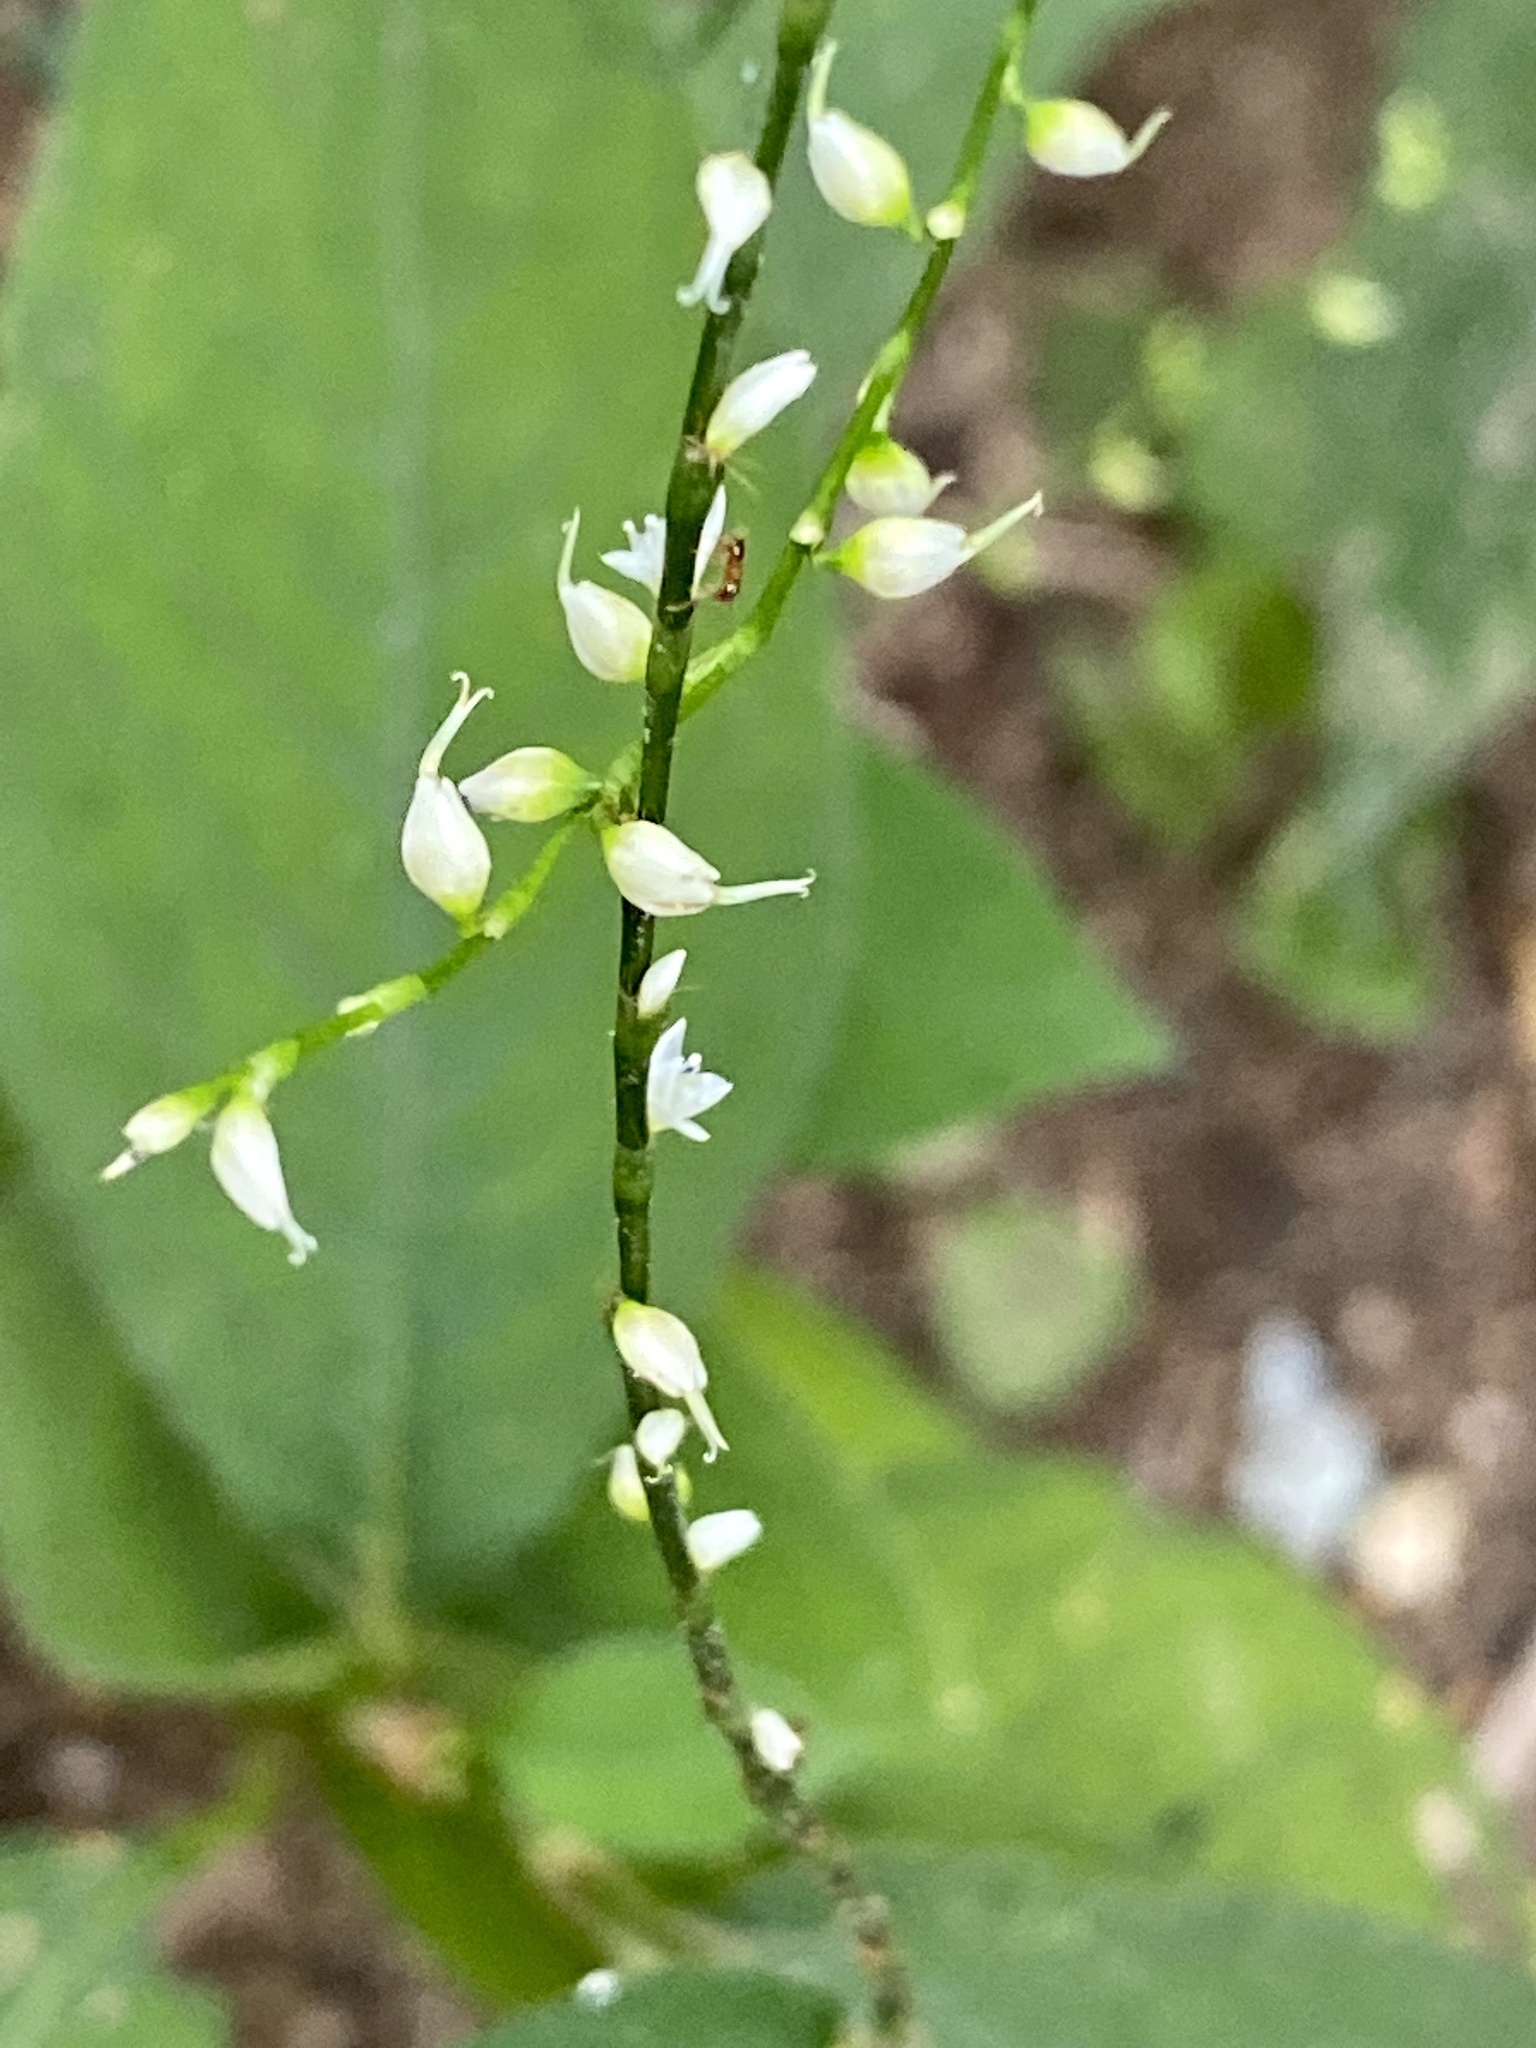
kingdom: Plantae
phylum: Tracheophyta
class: Magnoliopsida
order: Caryophyllales
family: Polygonaceae
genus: Persicaria
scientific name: Persicaria virginiana
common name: Jumpseed
